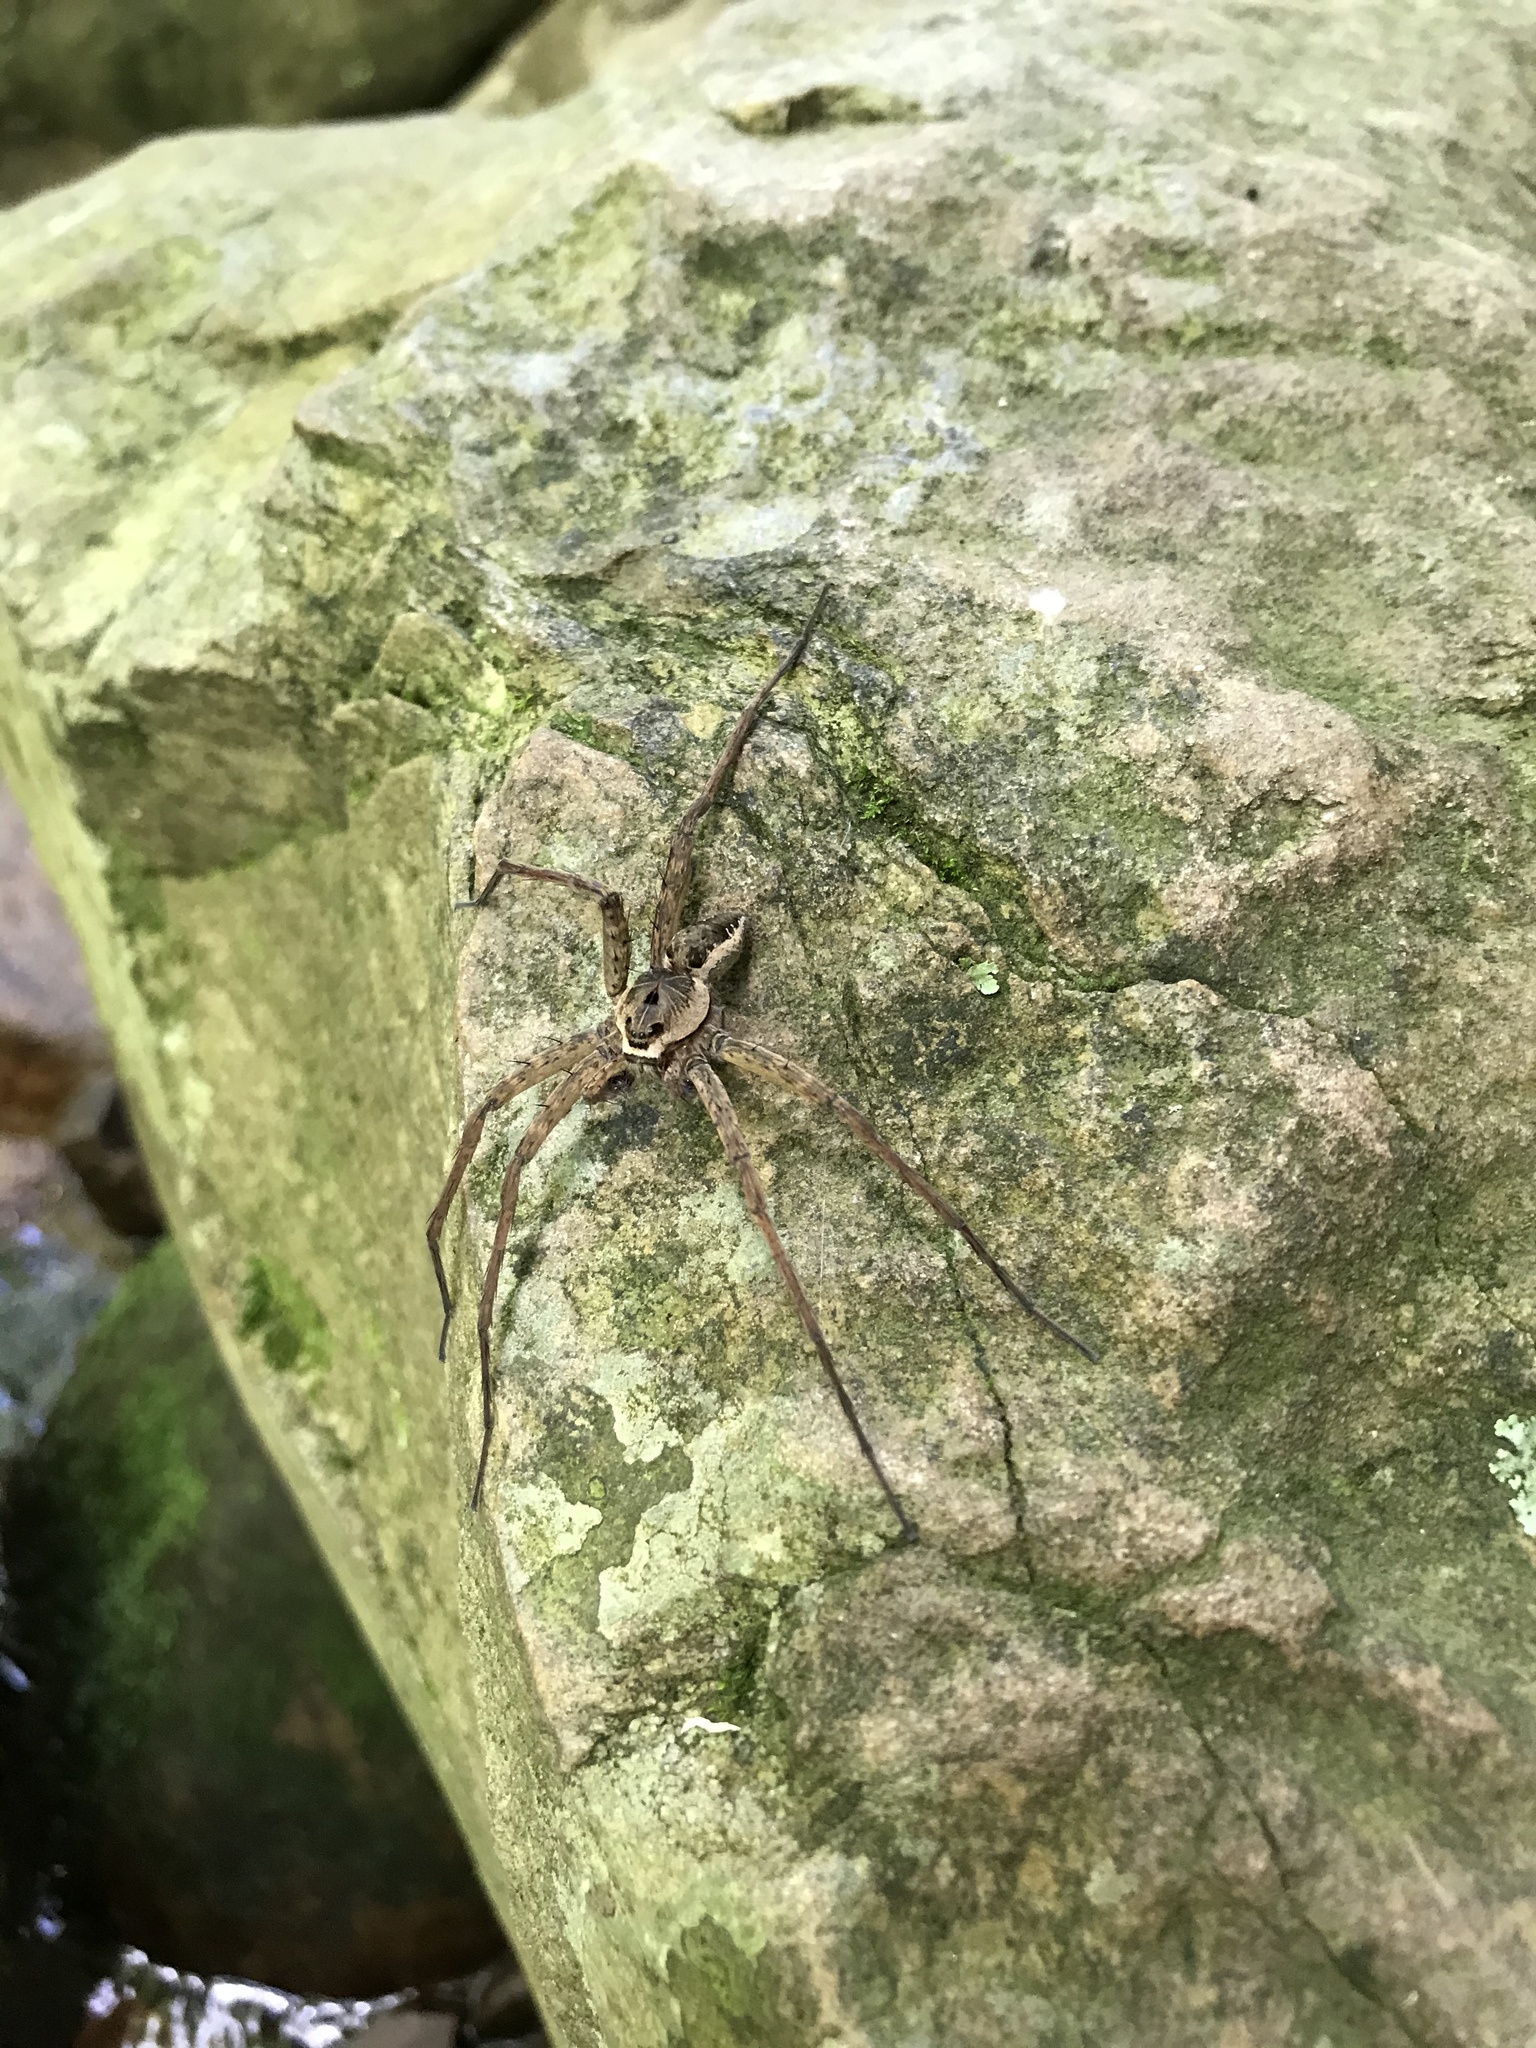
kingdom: Animalia
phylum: Arthropoda
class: Arachnida
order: Araneae
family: Pisauridae
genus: Dolomedes
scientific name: Dolomedes vittatus
